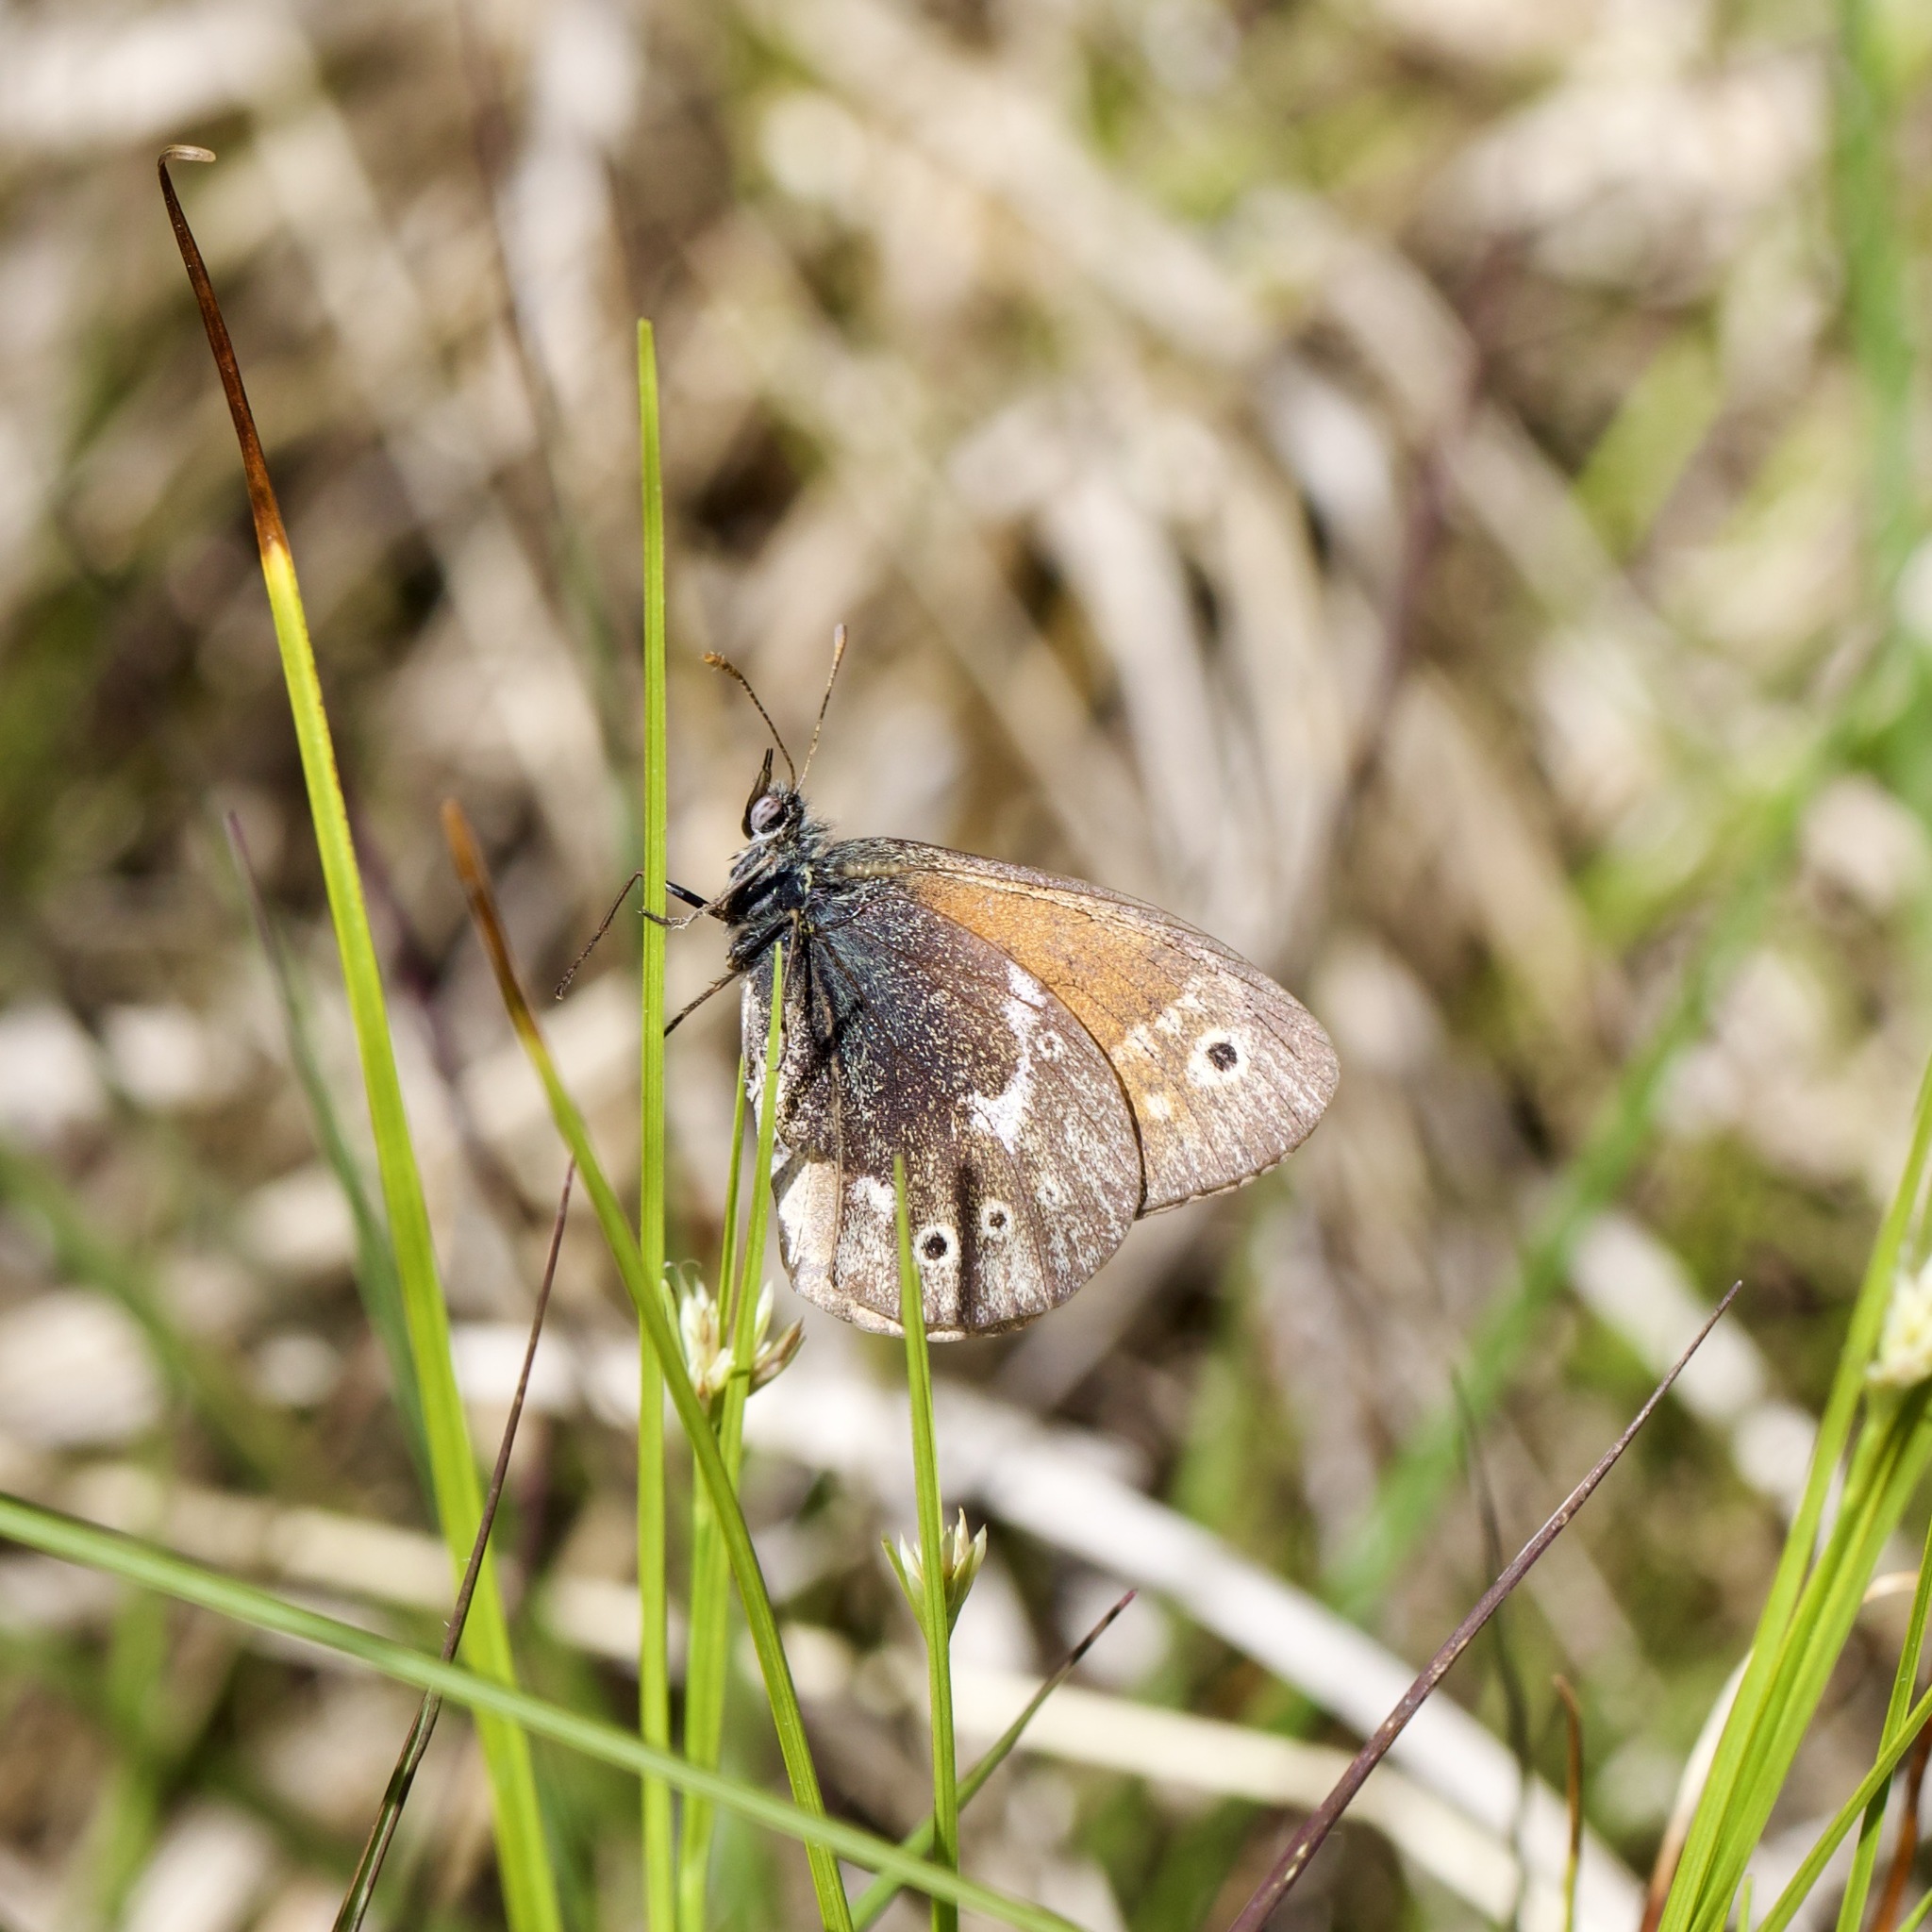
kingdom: Animalia
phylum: Arthropoda
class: Insecta
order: Lepidoptera
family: Nymphalidae
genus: Coenonympha
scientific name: Coenonympha tullia
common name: Large heath
